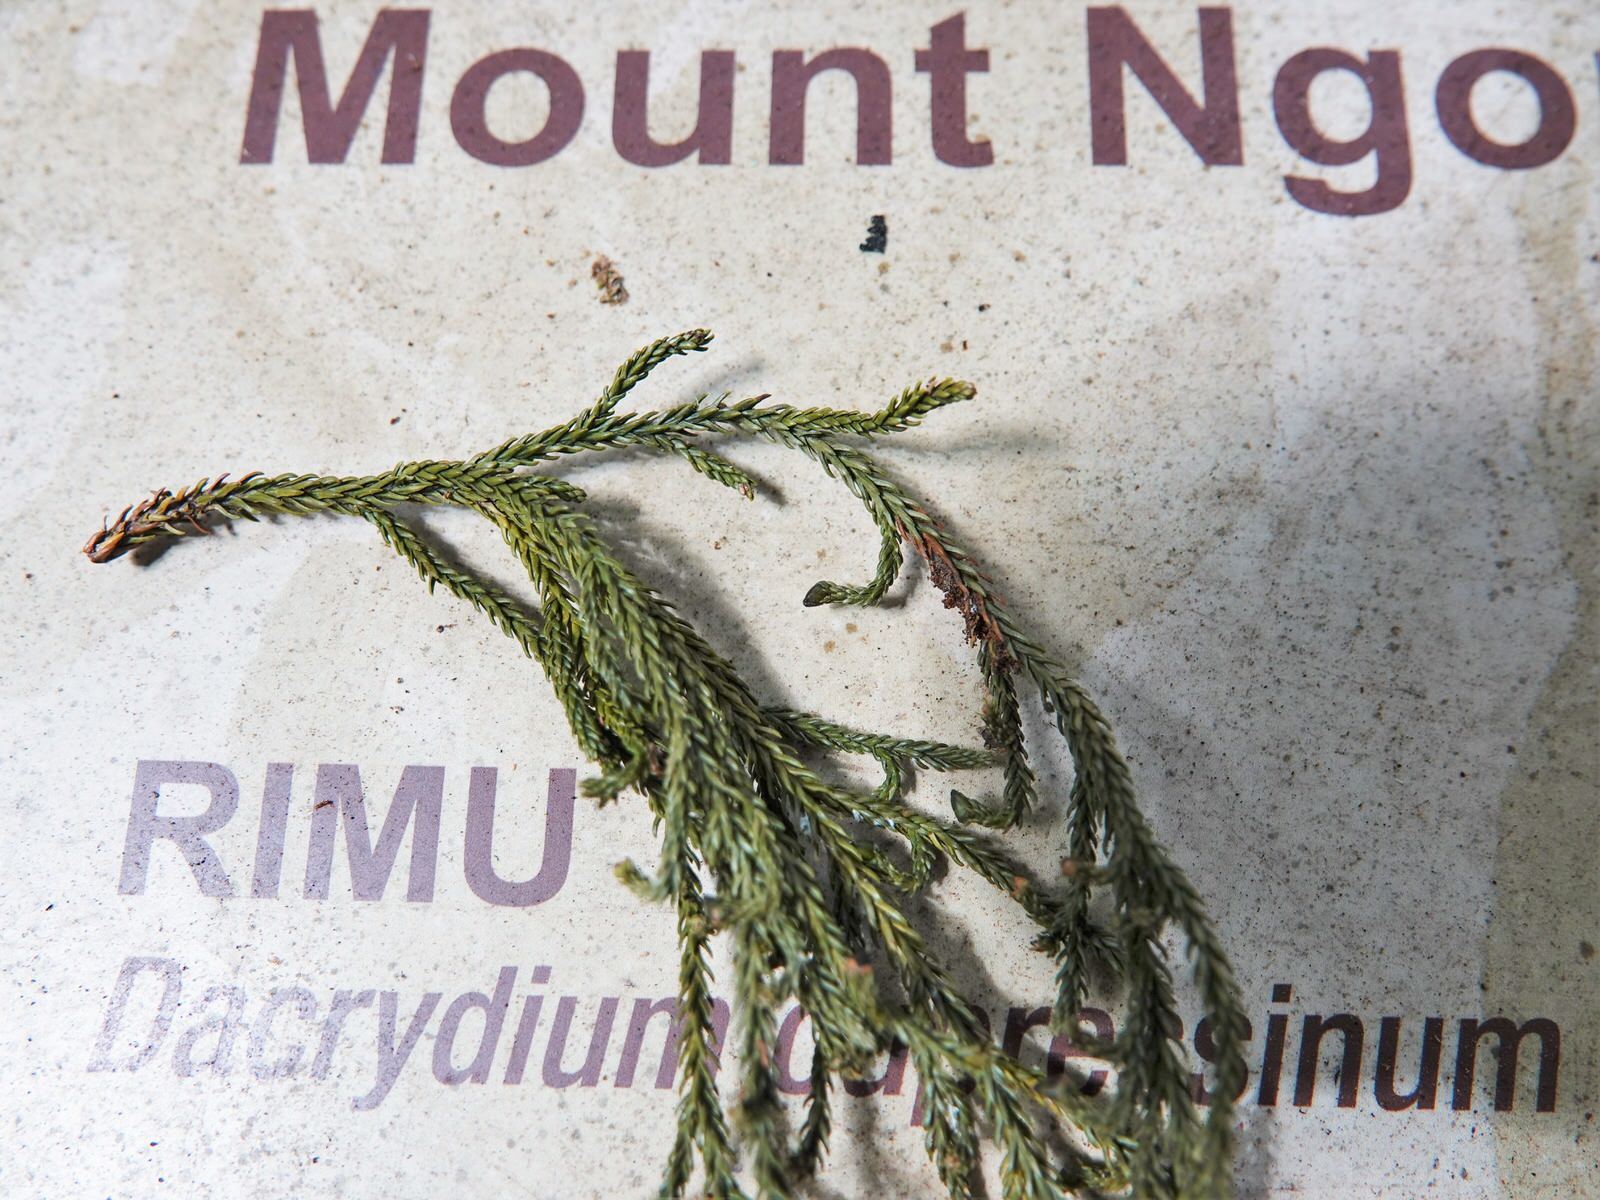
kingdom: Plantae
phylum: Tracheophyta
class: Pinopsida
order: Pinales
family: Podocarpaceae
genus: Dacrydium
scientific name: Dacrydium cupressinum
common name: Red pine
